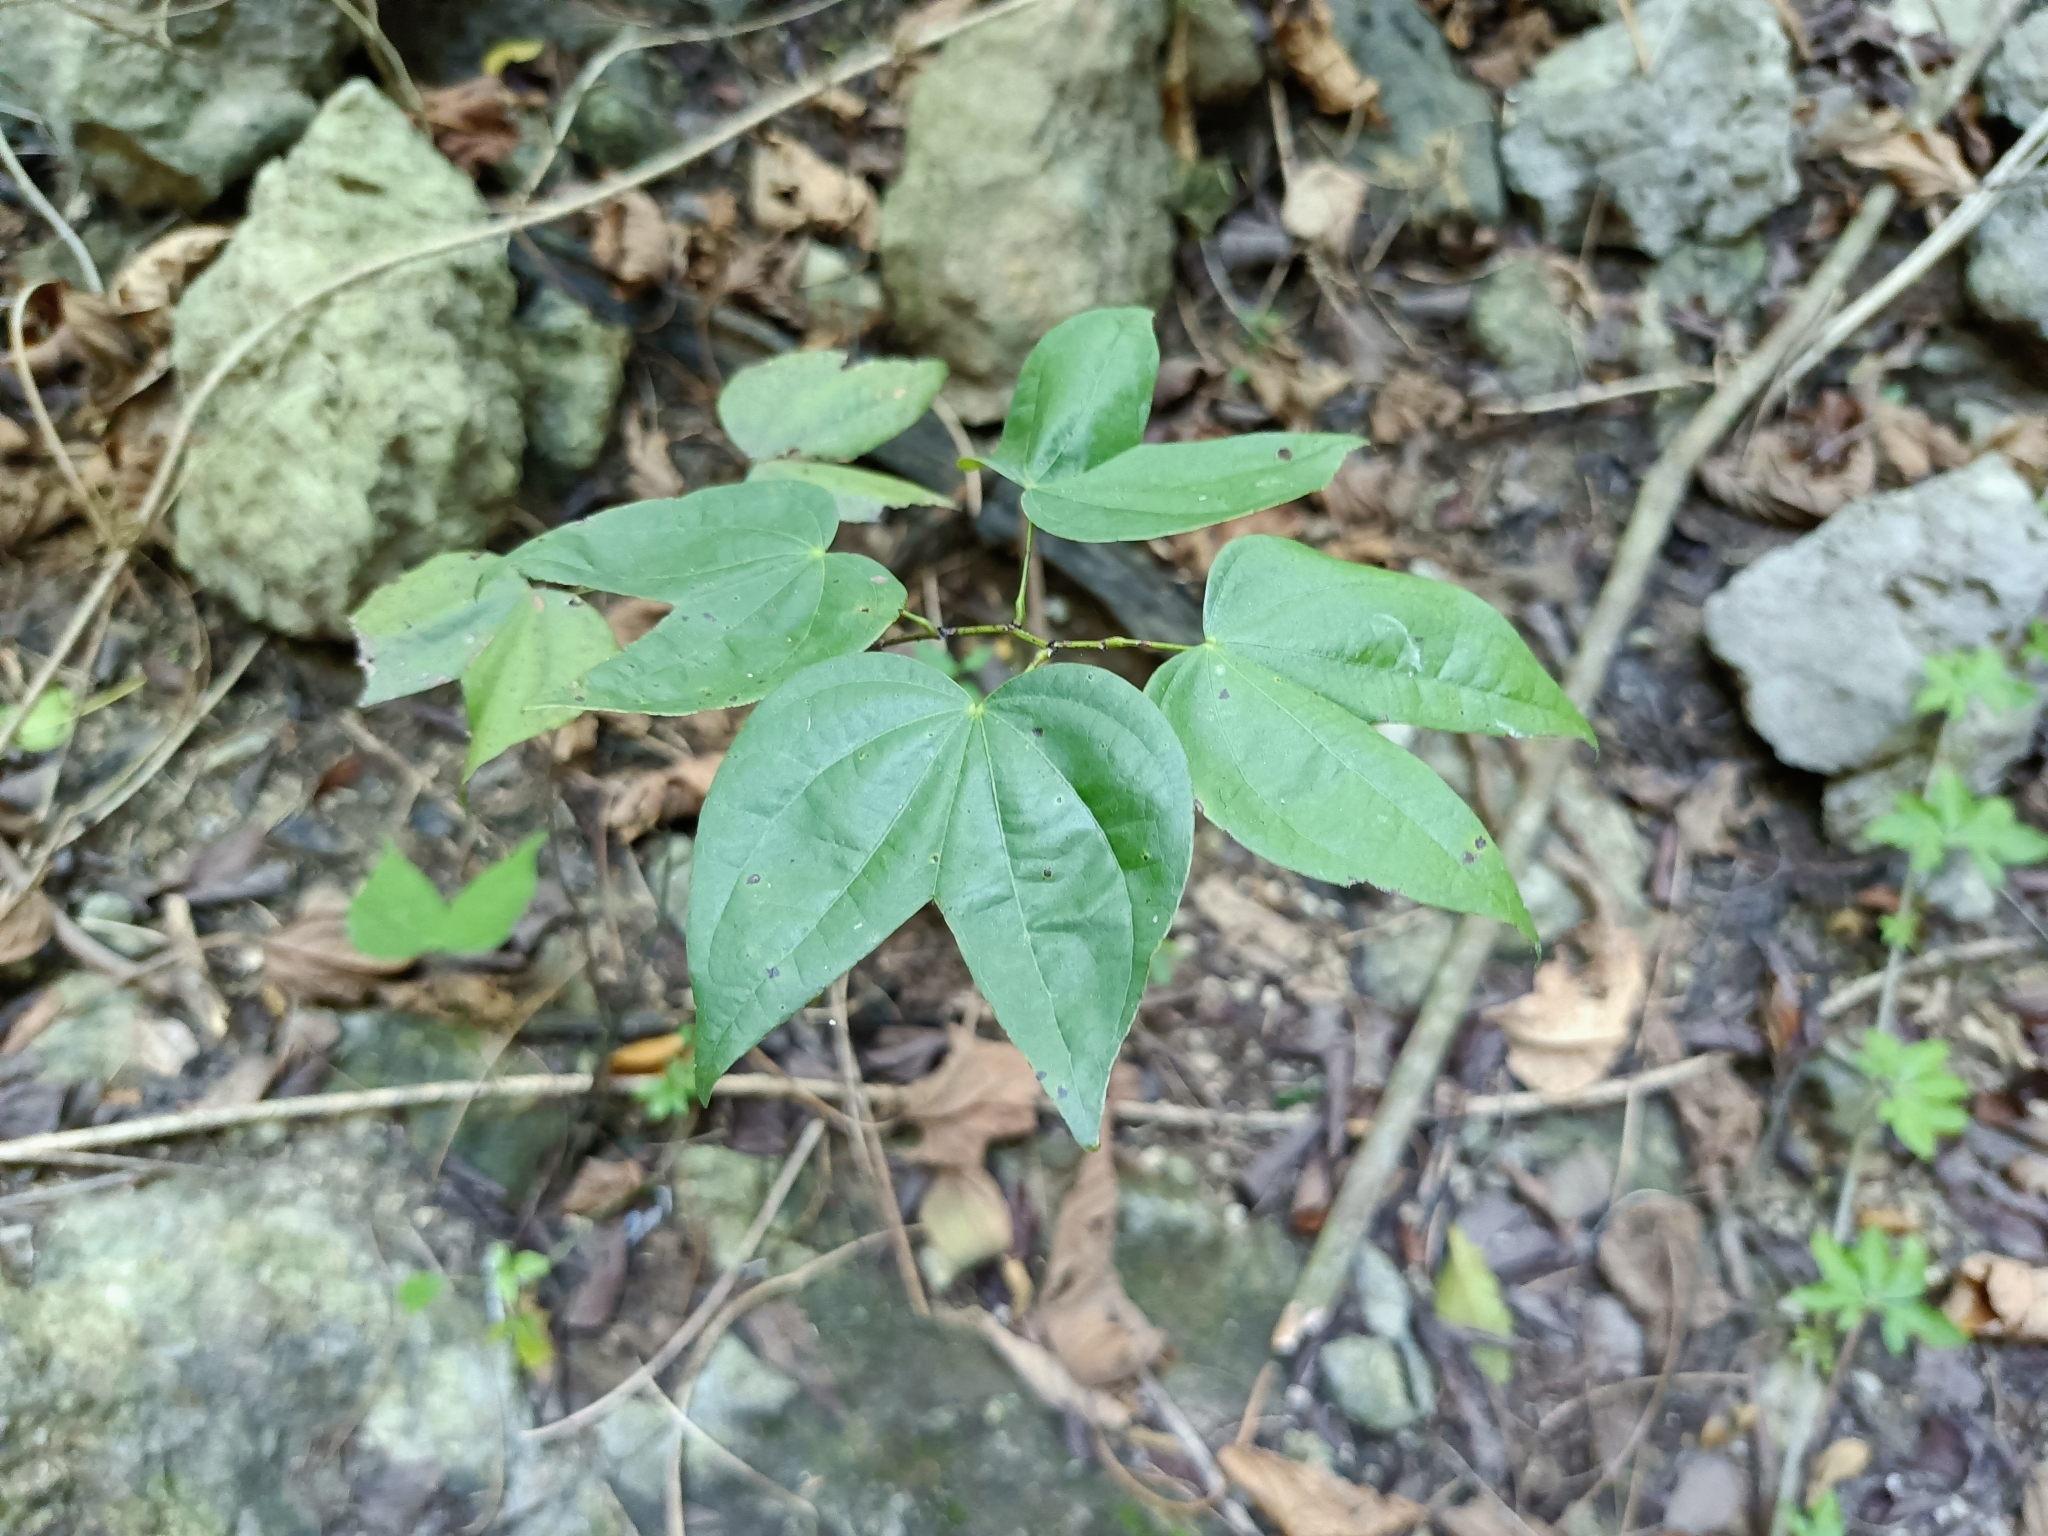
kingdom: Plantae
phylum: Tracheophyta
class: Magnoliopsida
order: Fabales
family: Fabaceae
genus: Phanera
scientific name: Phanera championii
